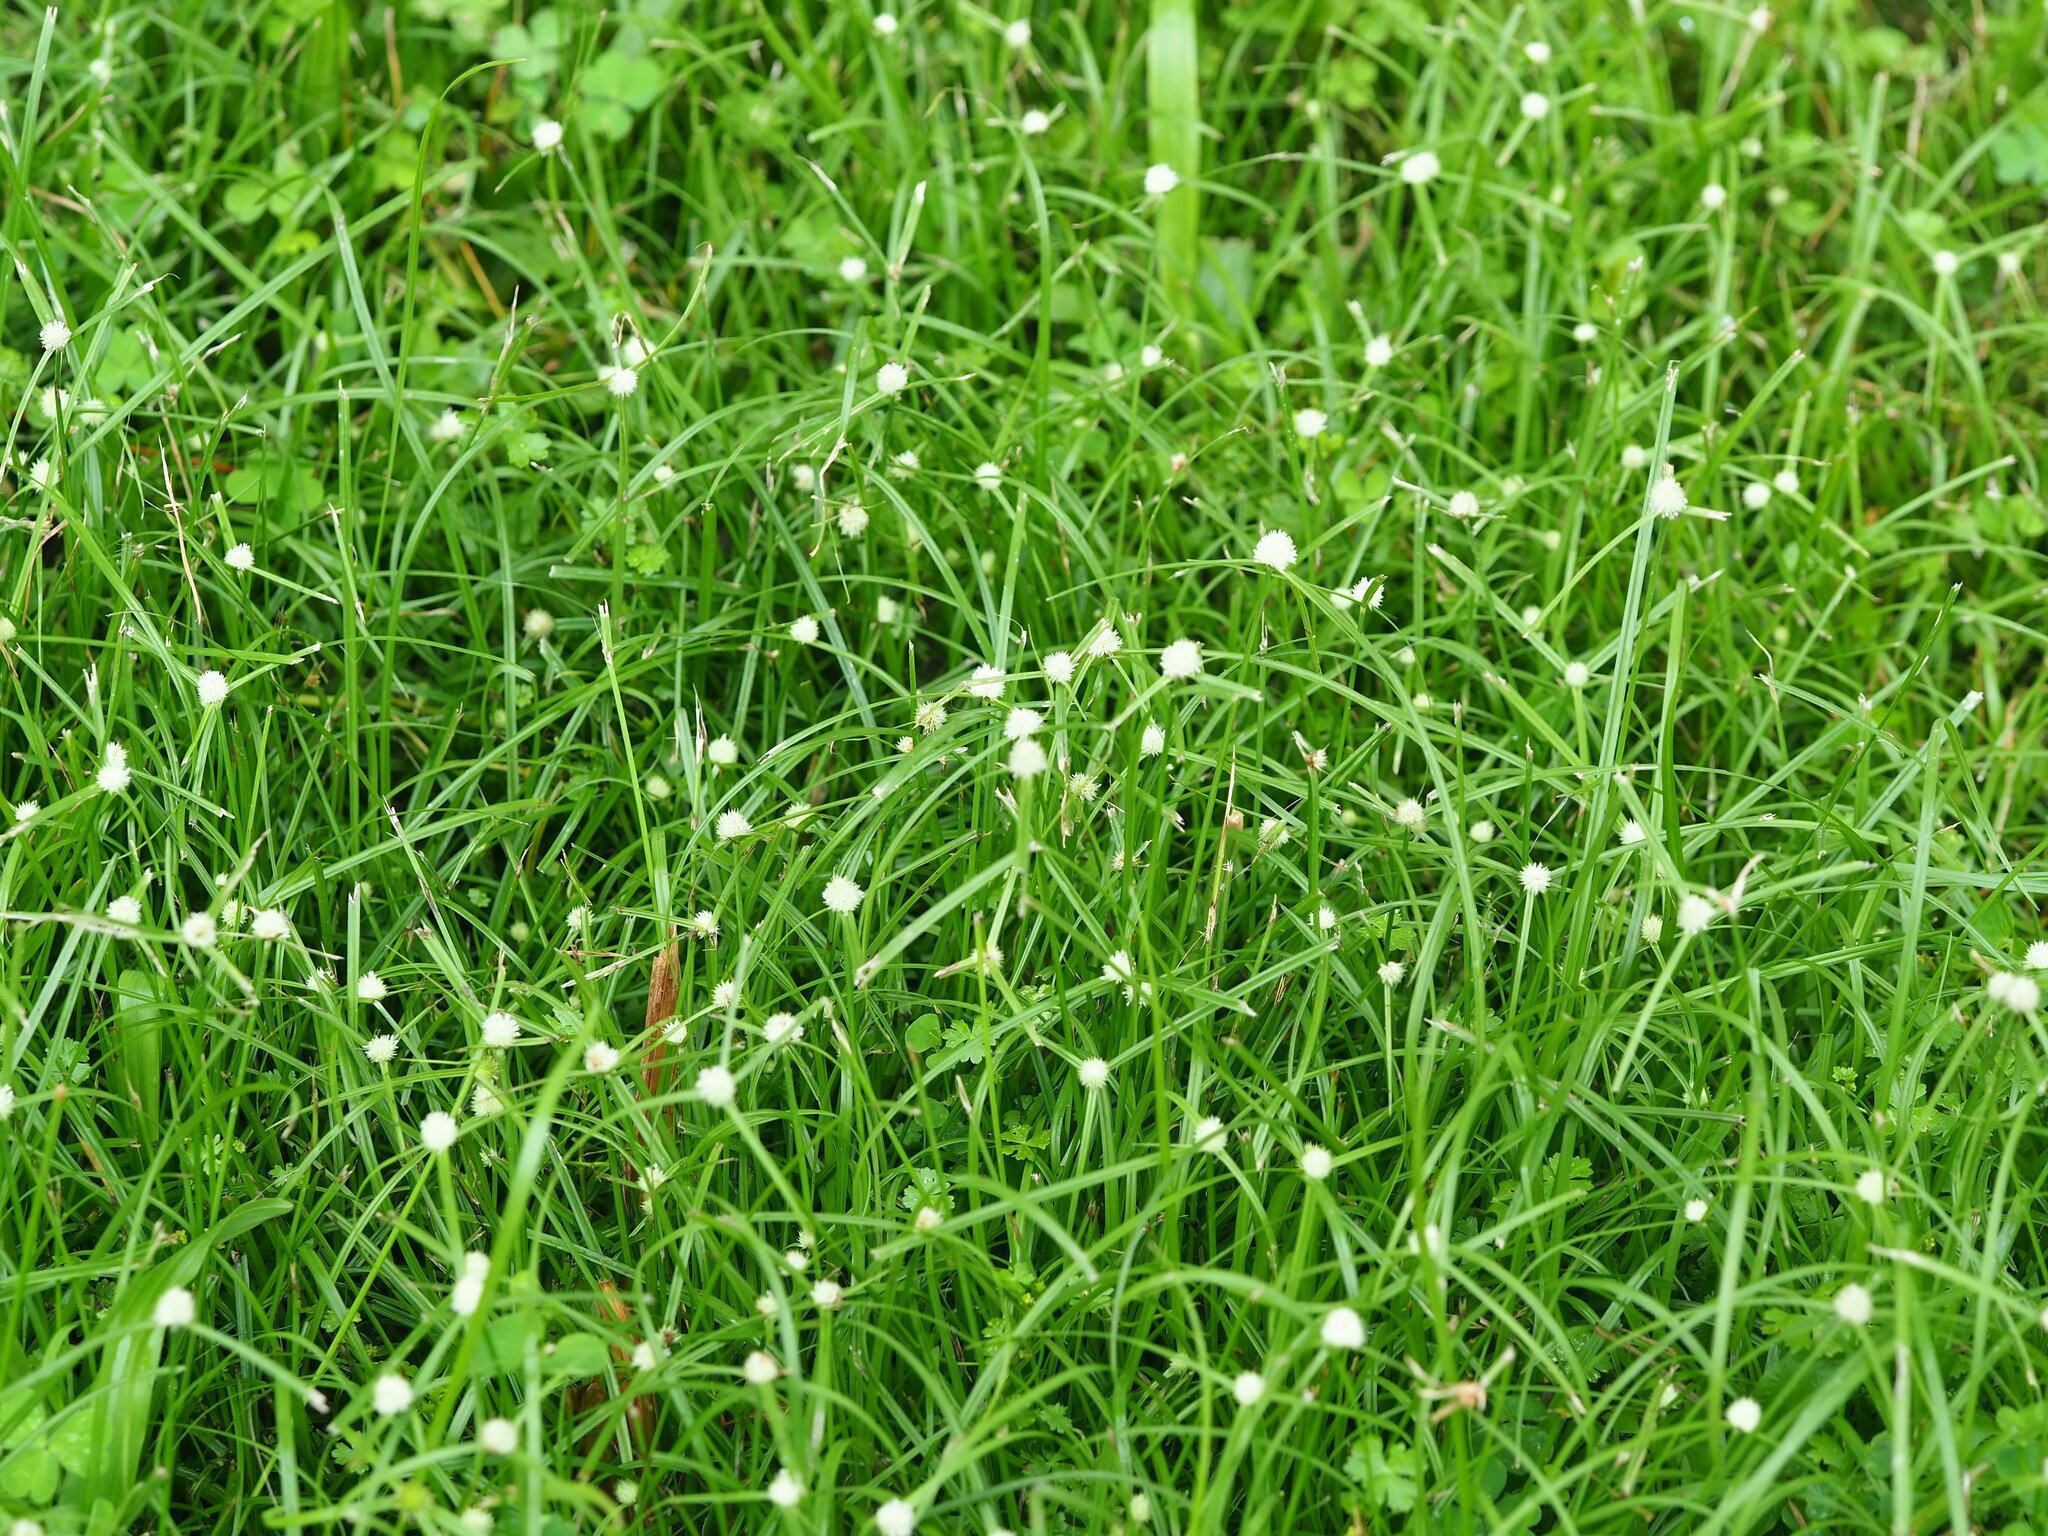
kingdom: Plantae
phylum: Tracheophyta
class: Liliopsida
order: Poales
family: Cyperaceae
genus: Cyperus
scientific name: Cyperus mindorensis
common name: Flatsedge
